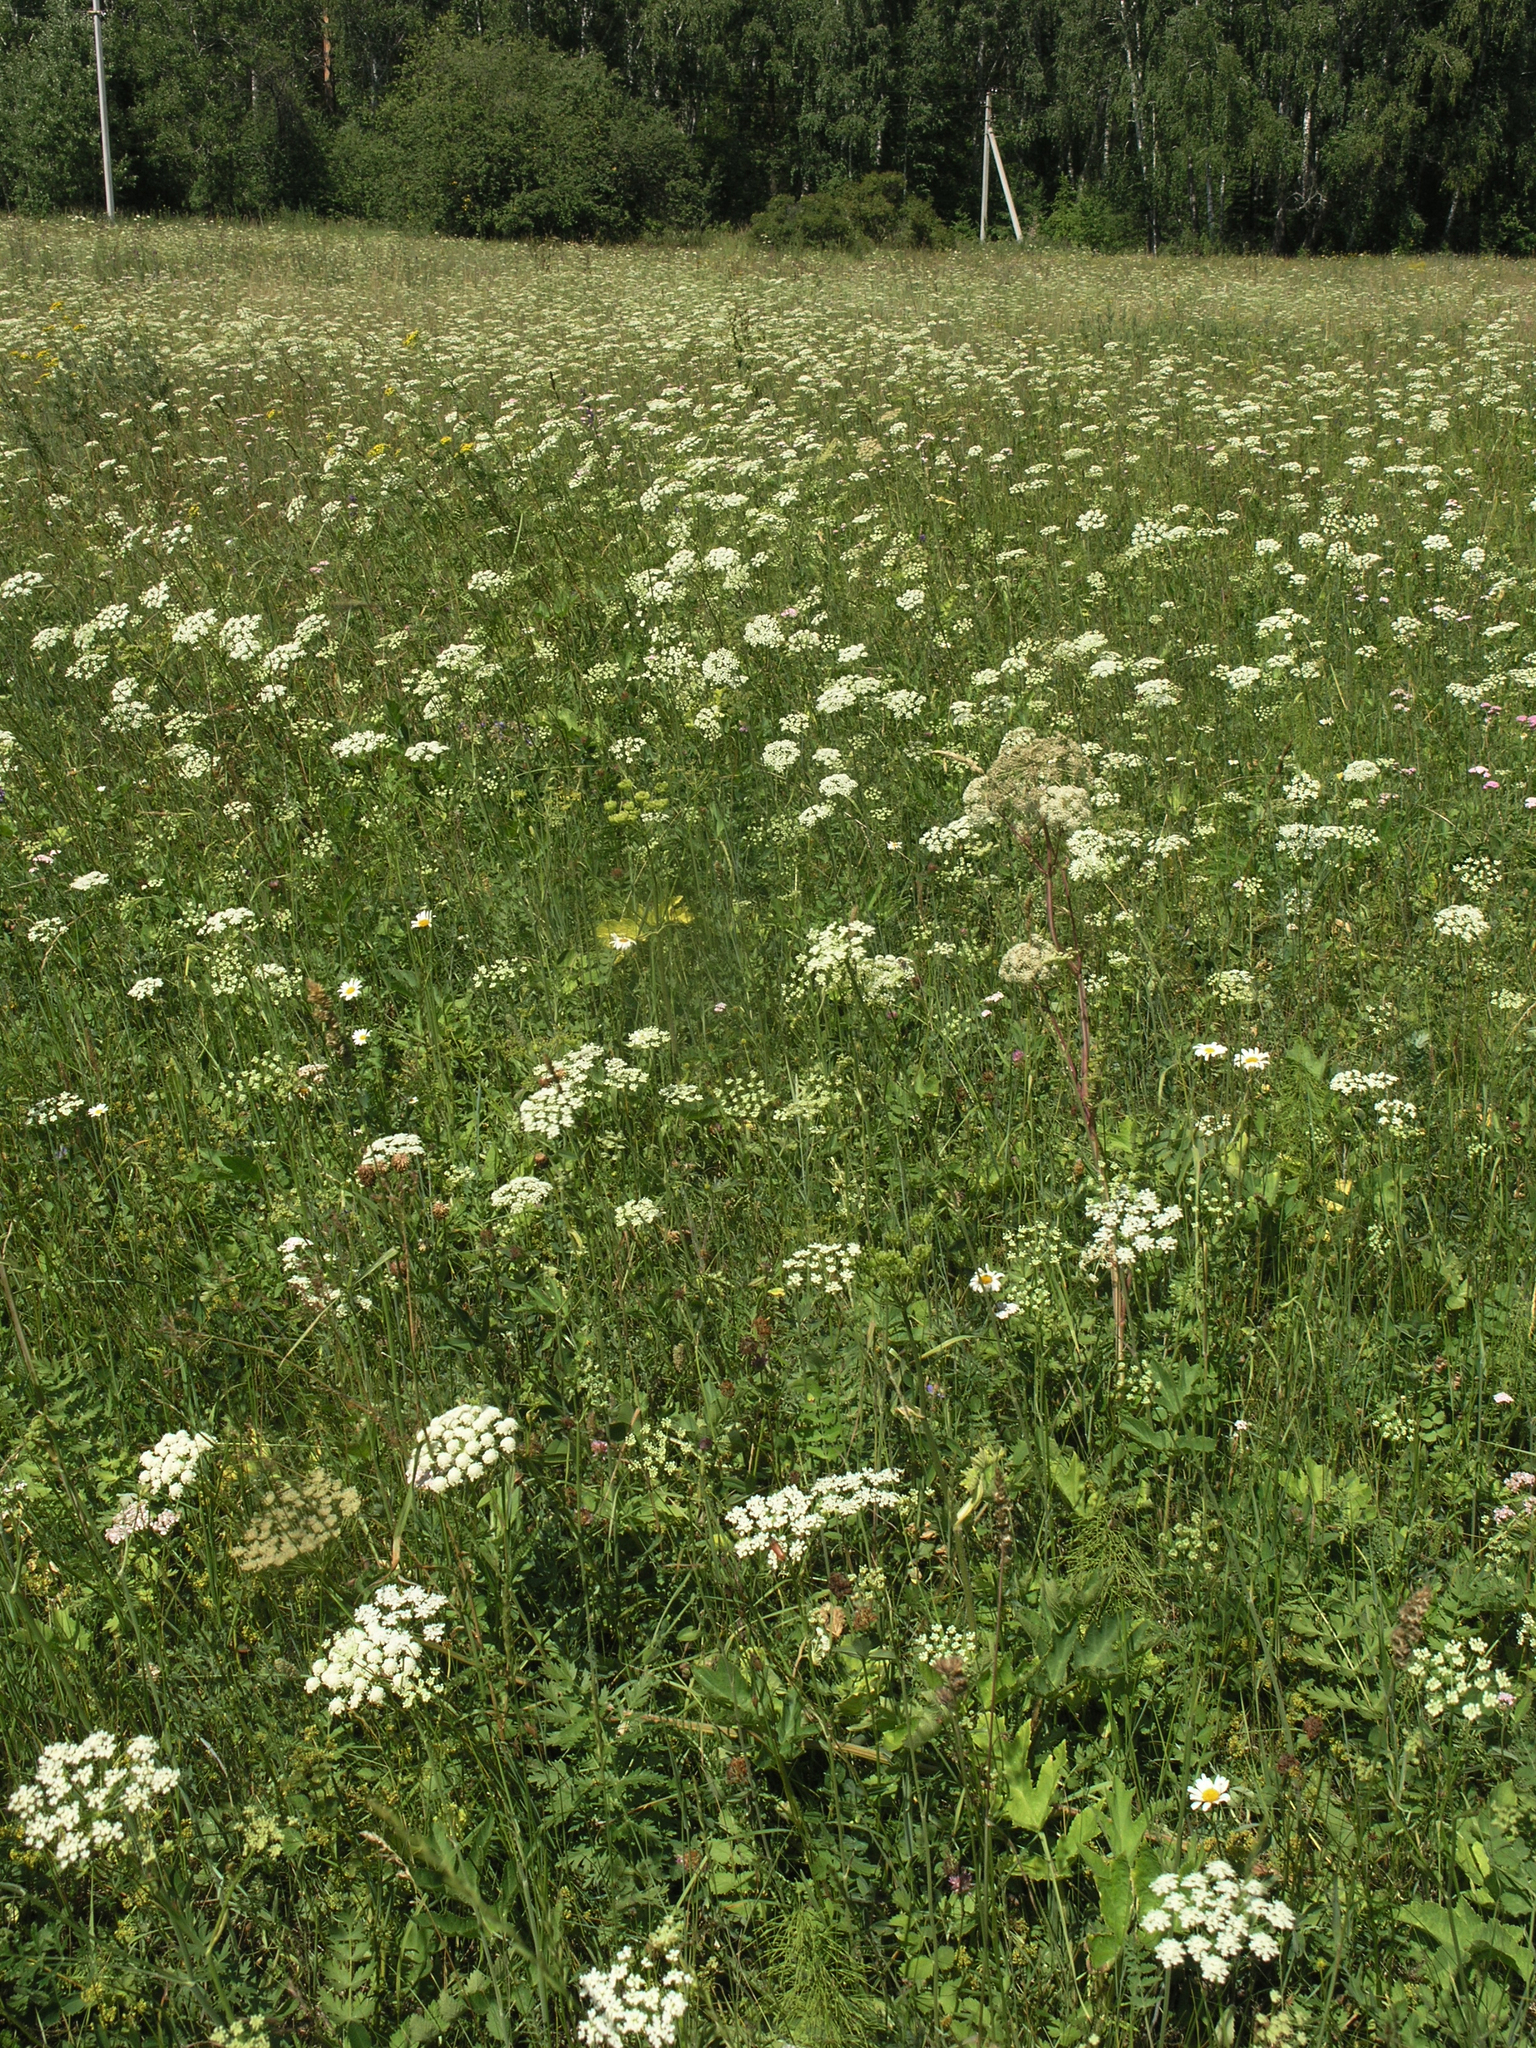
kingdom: Plantae
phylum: Tracheophyta
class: Magnoliopsida
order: Apiales
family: Apiaceae
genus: Seseli
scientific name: Seseli libanotis
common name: Mooncarrot
